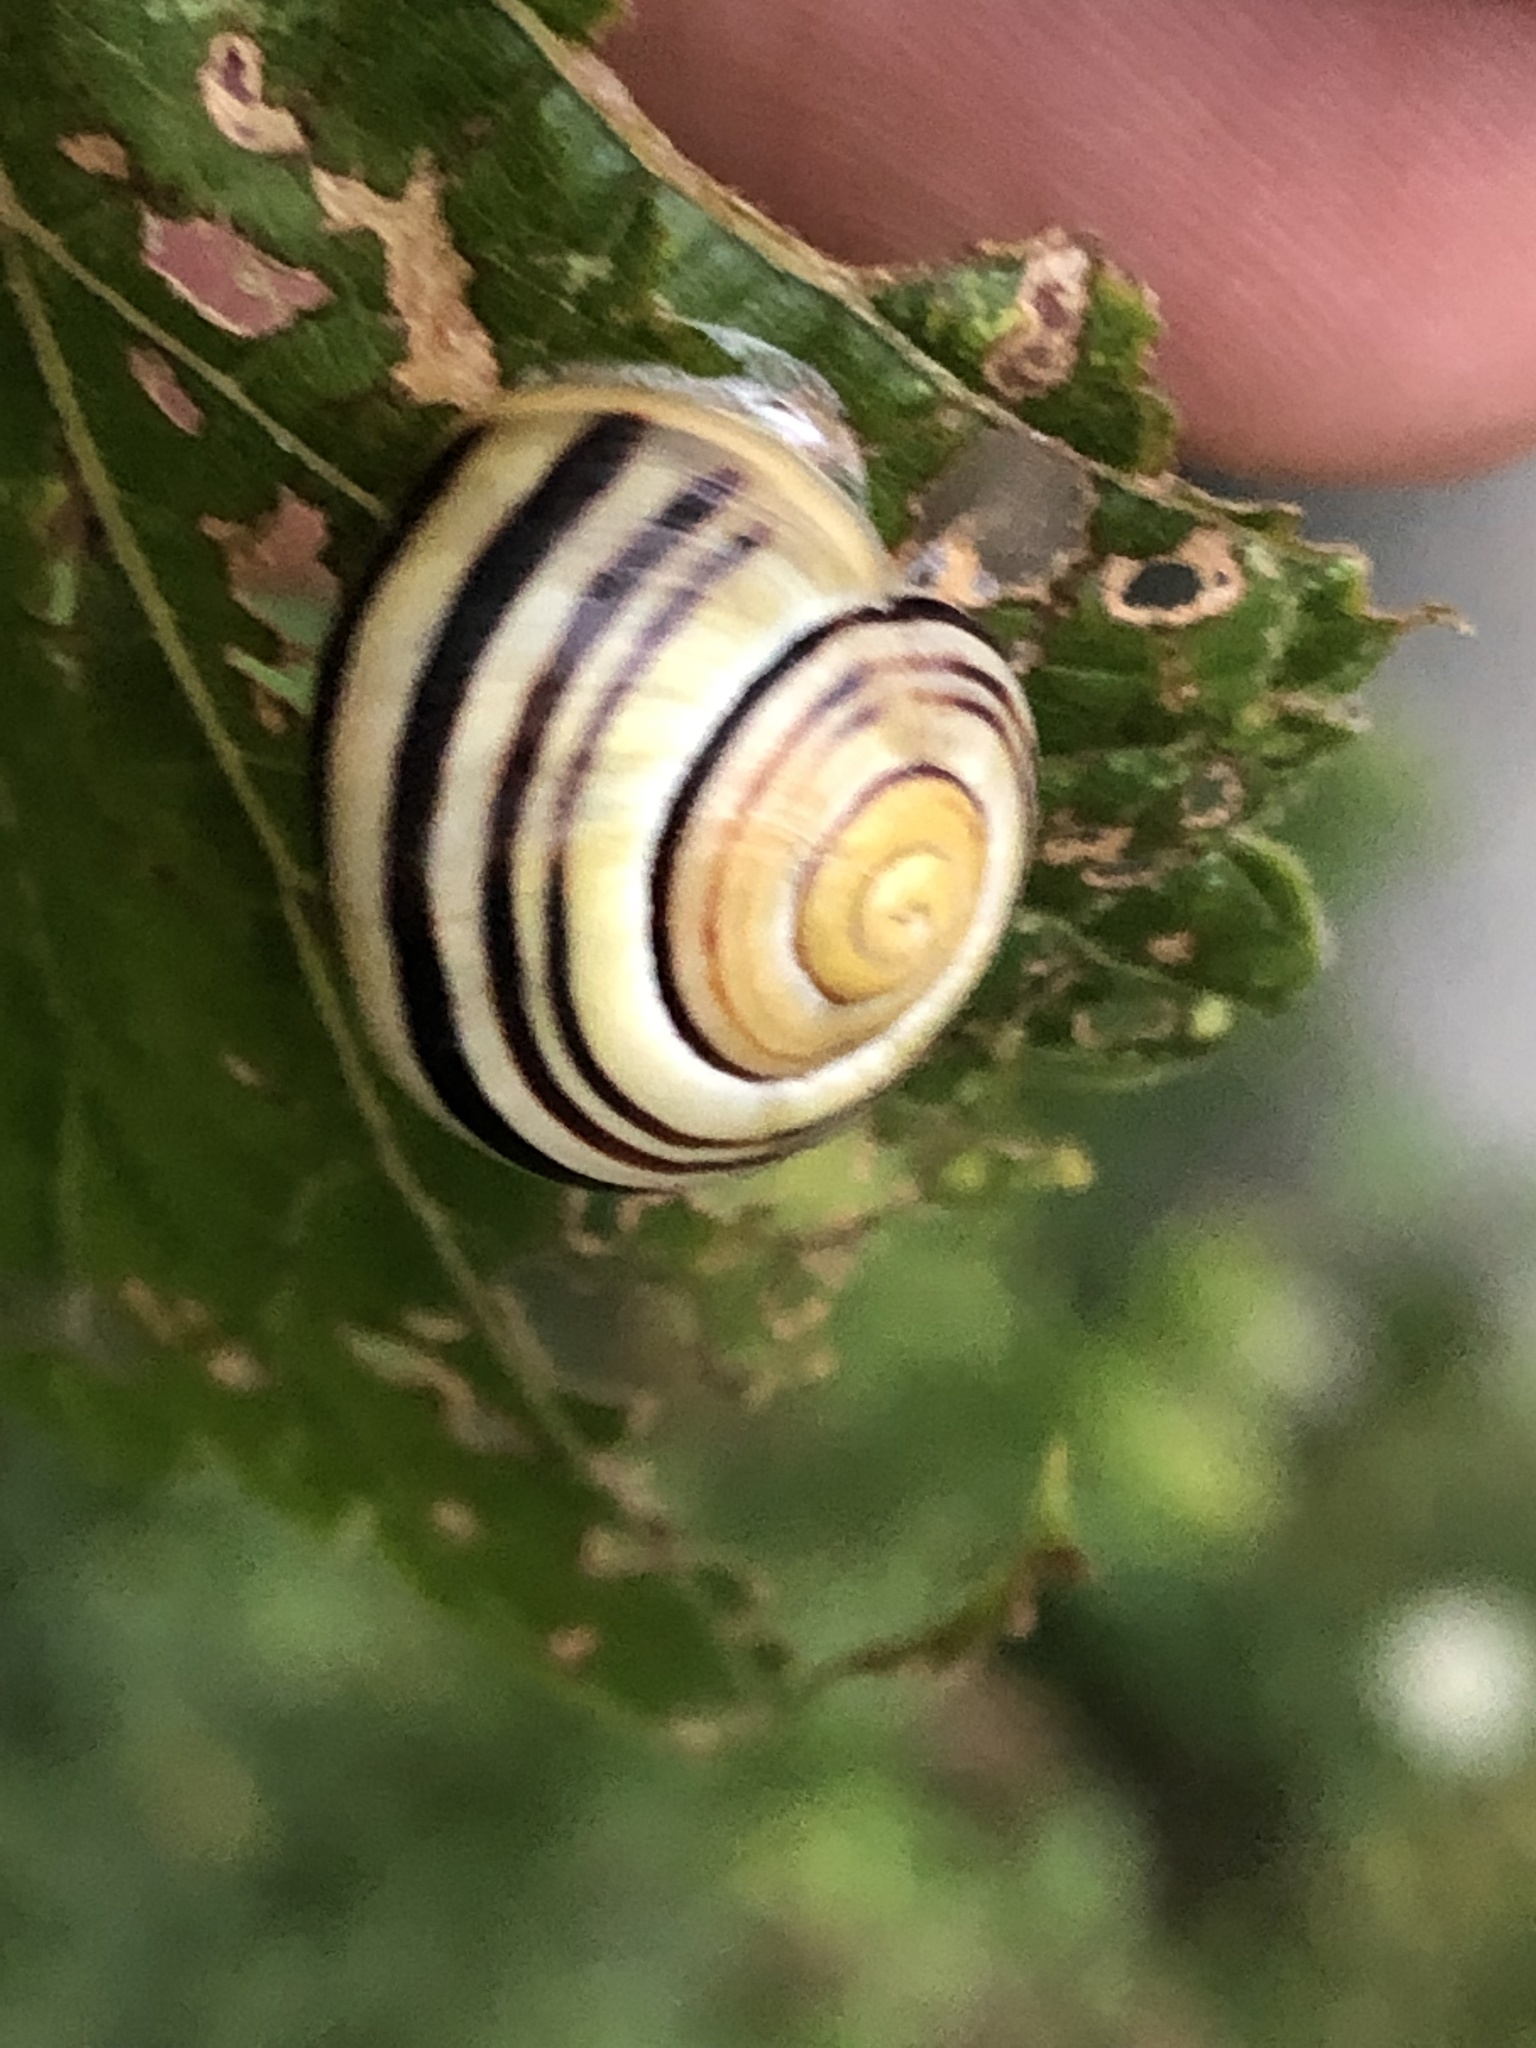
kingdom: Animalia
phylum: Mollusca
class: Gastropoda
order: Stylommatophora
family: Helicidae
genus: Cepaea
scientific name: Cepaea
